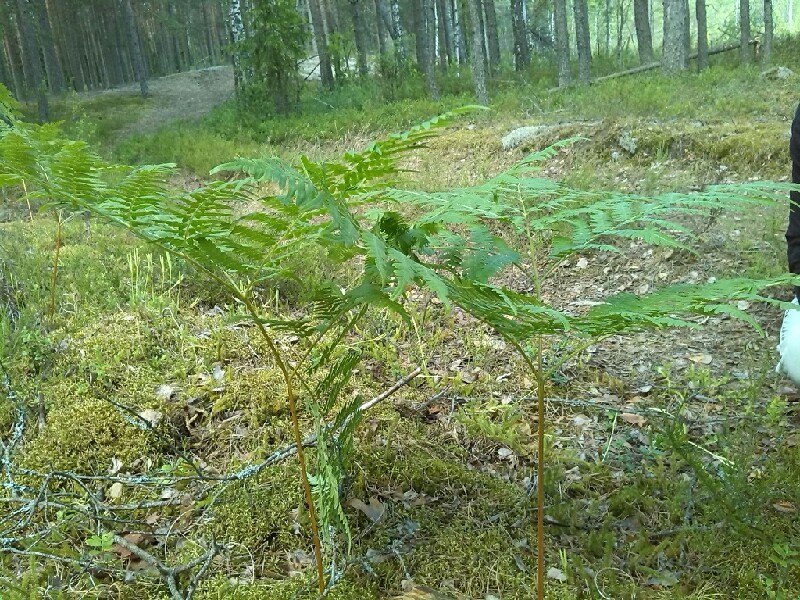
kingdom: Plantae
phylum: Tracheophyta
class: Polypodiopsida
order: Polypodiales
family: Dennstaedtiaceae
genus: Pteridium
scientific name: Pteridium aquilinum
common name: Bracken
